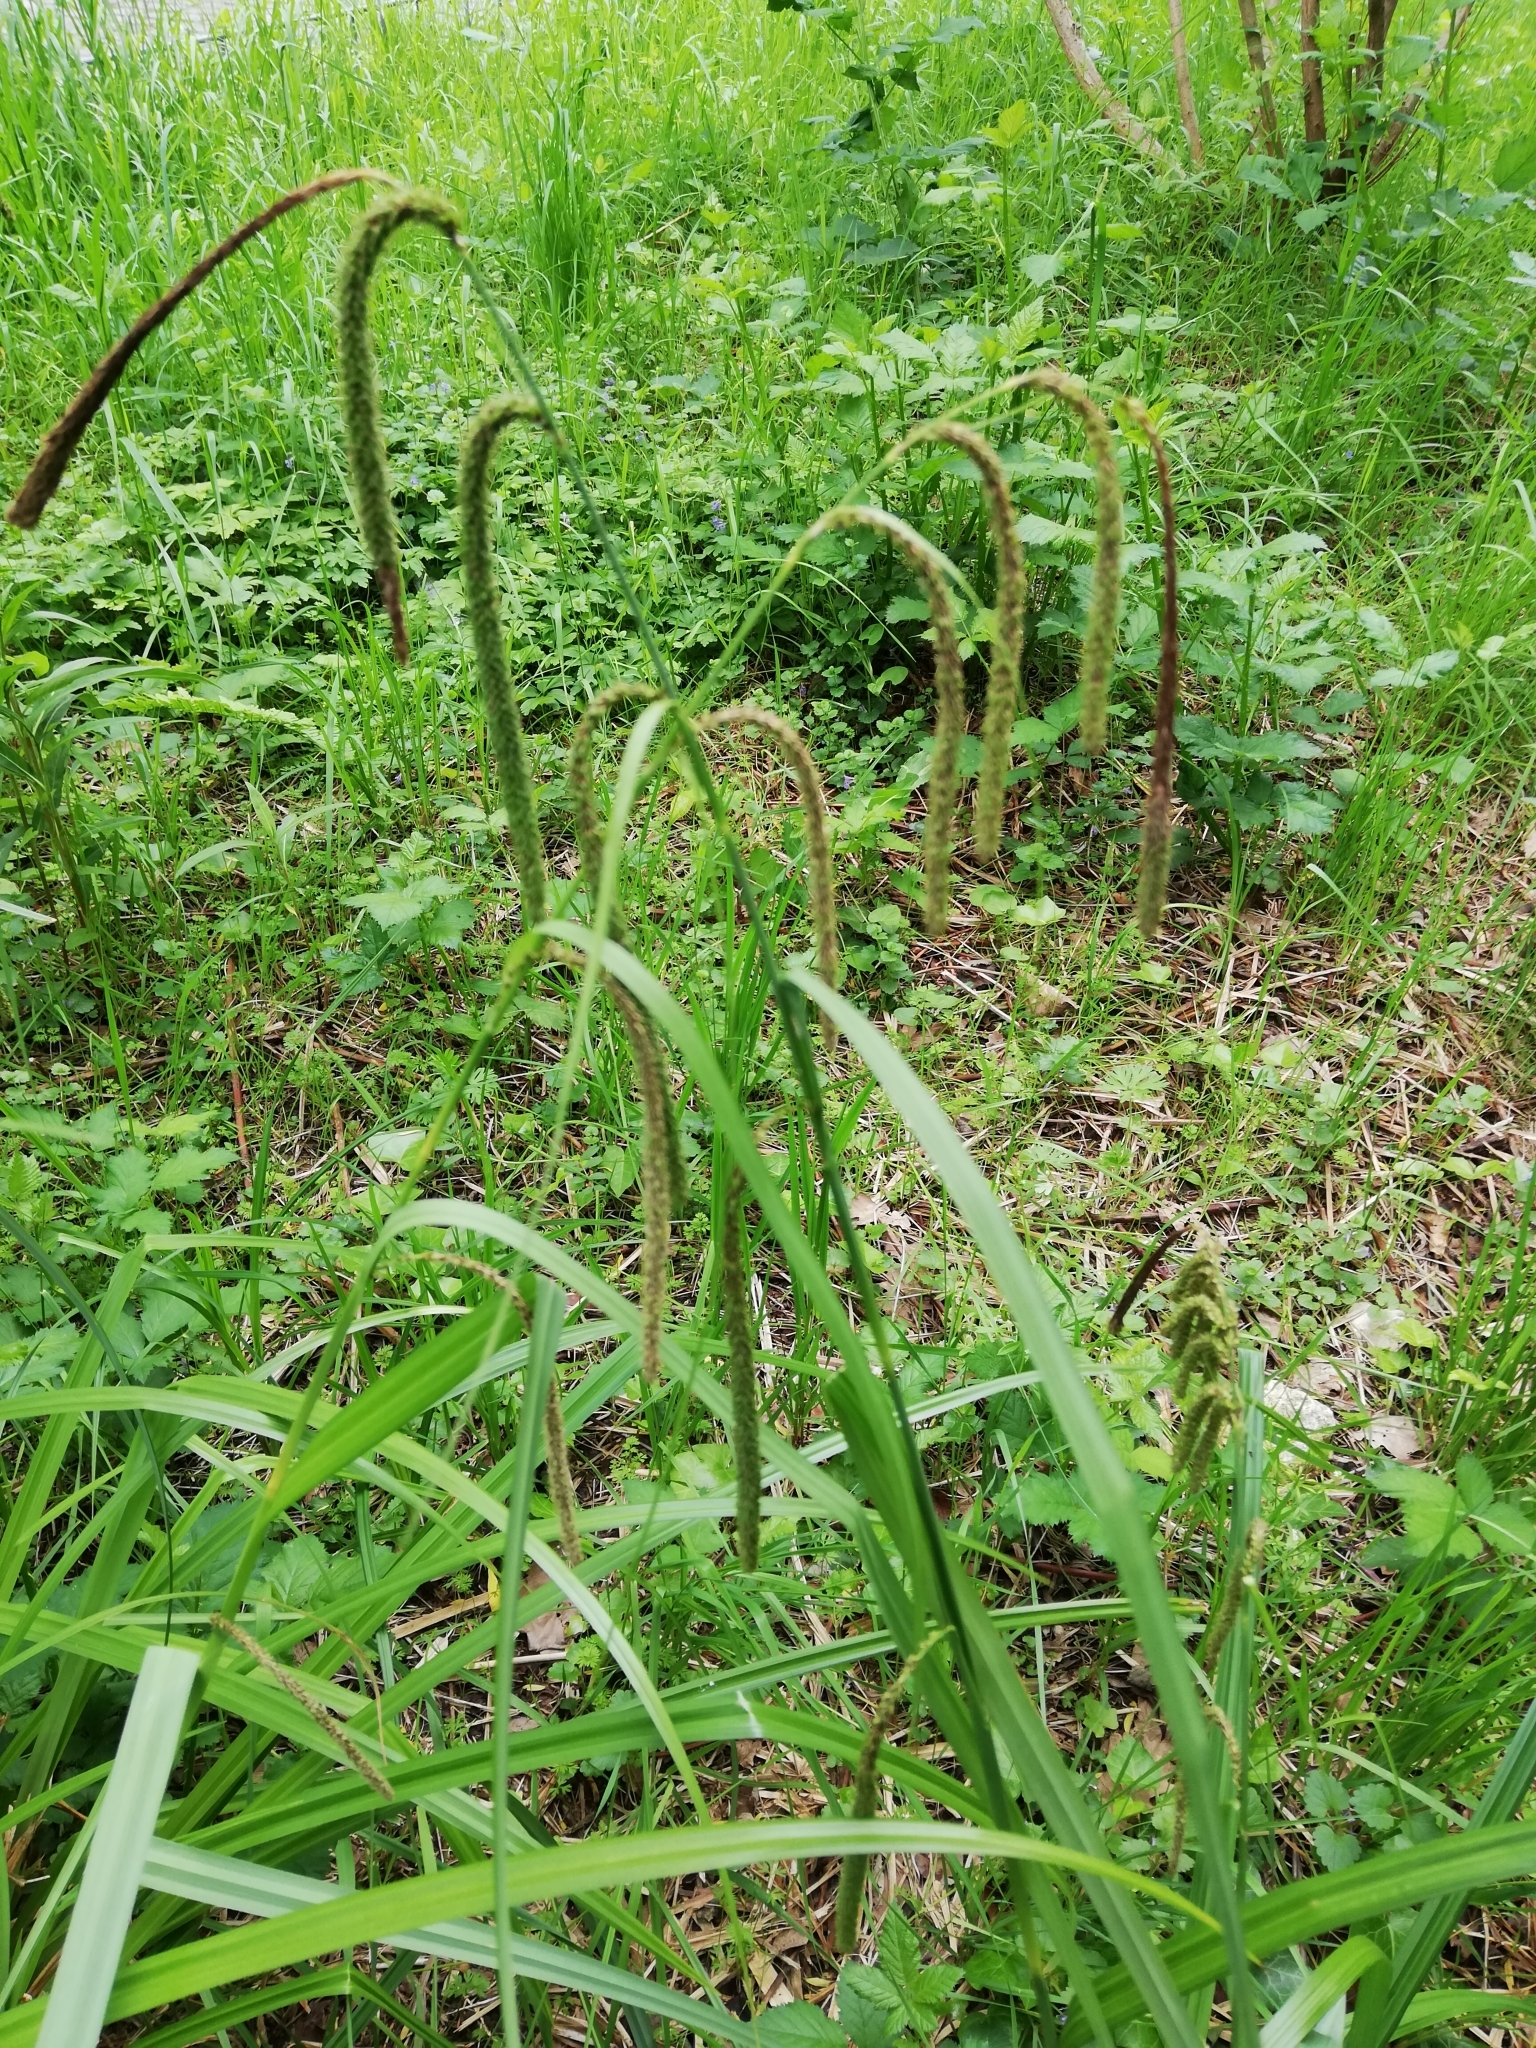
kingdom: Plantae
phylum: Tracheophyta
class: Liliopsida
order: Poales
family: Cyperaceae
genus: Carex
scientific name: Carex pendula
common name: Pendulous sedge
